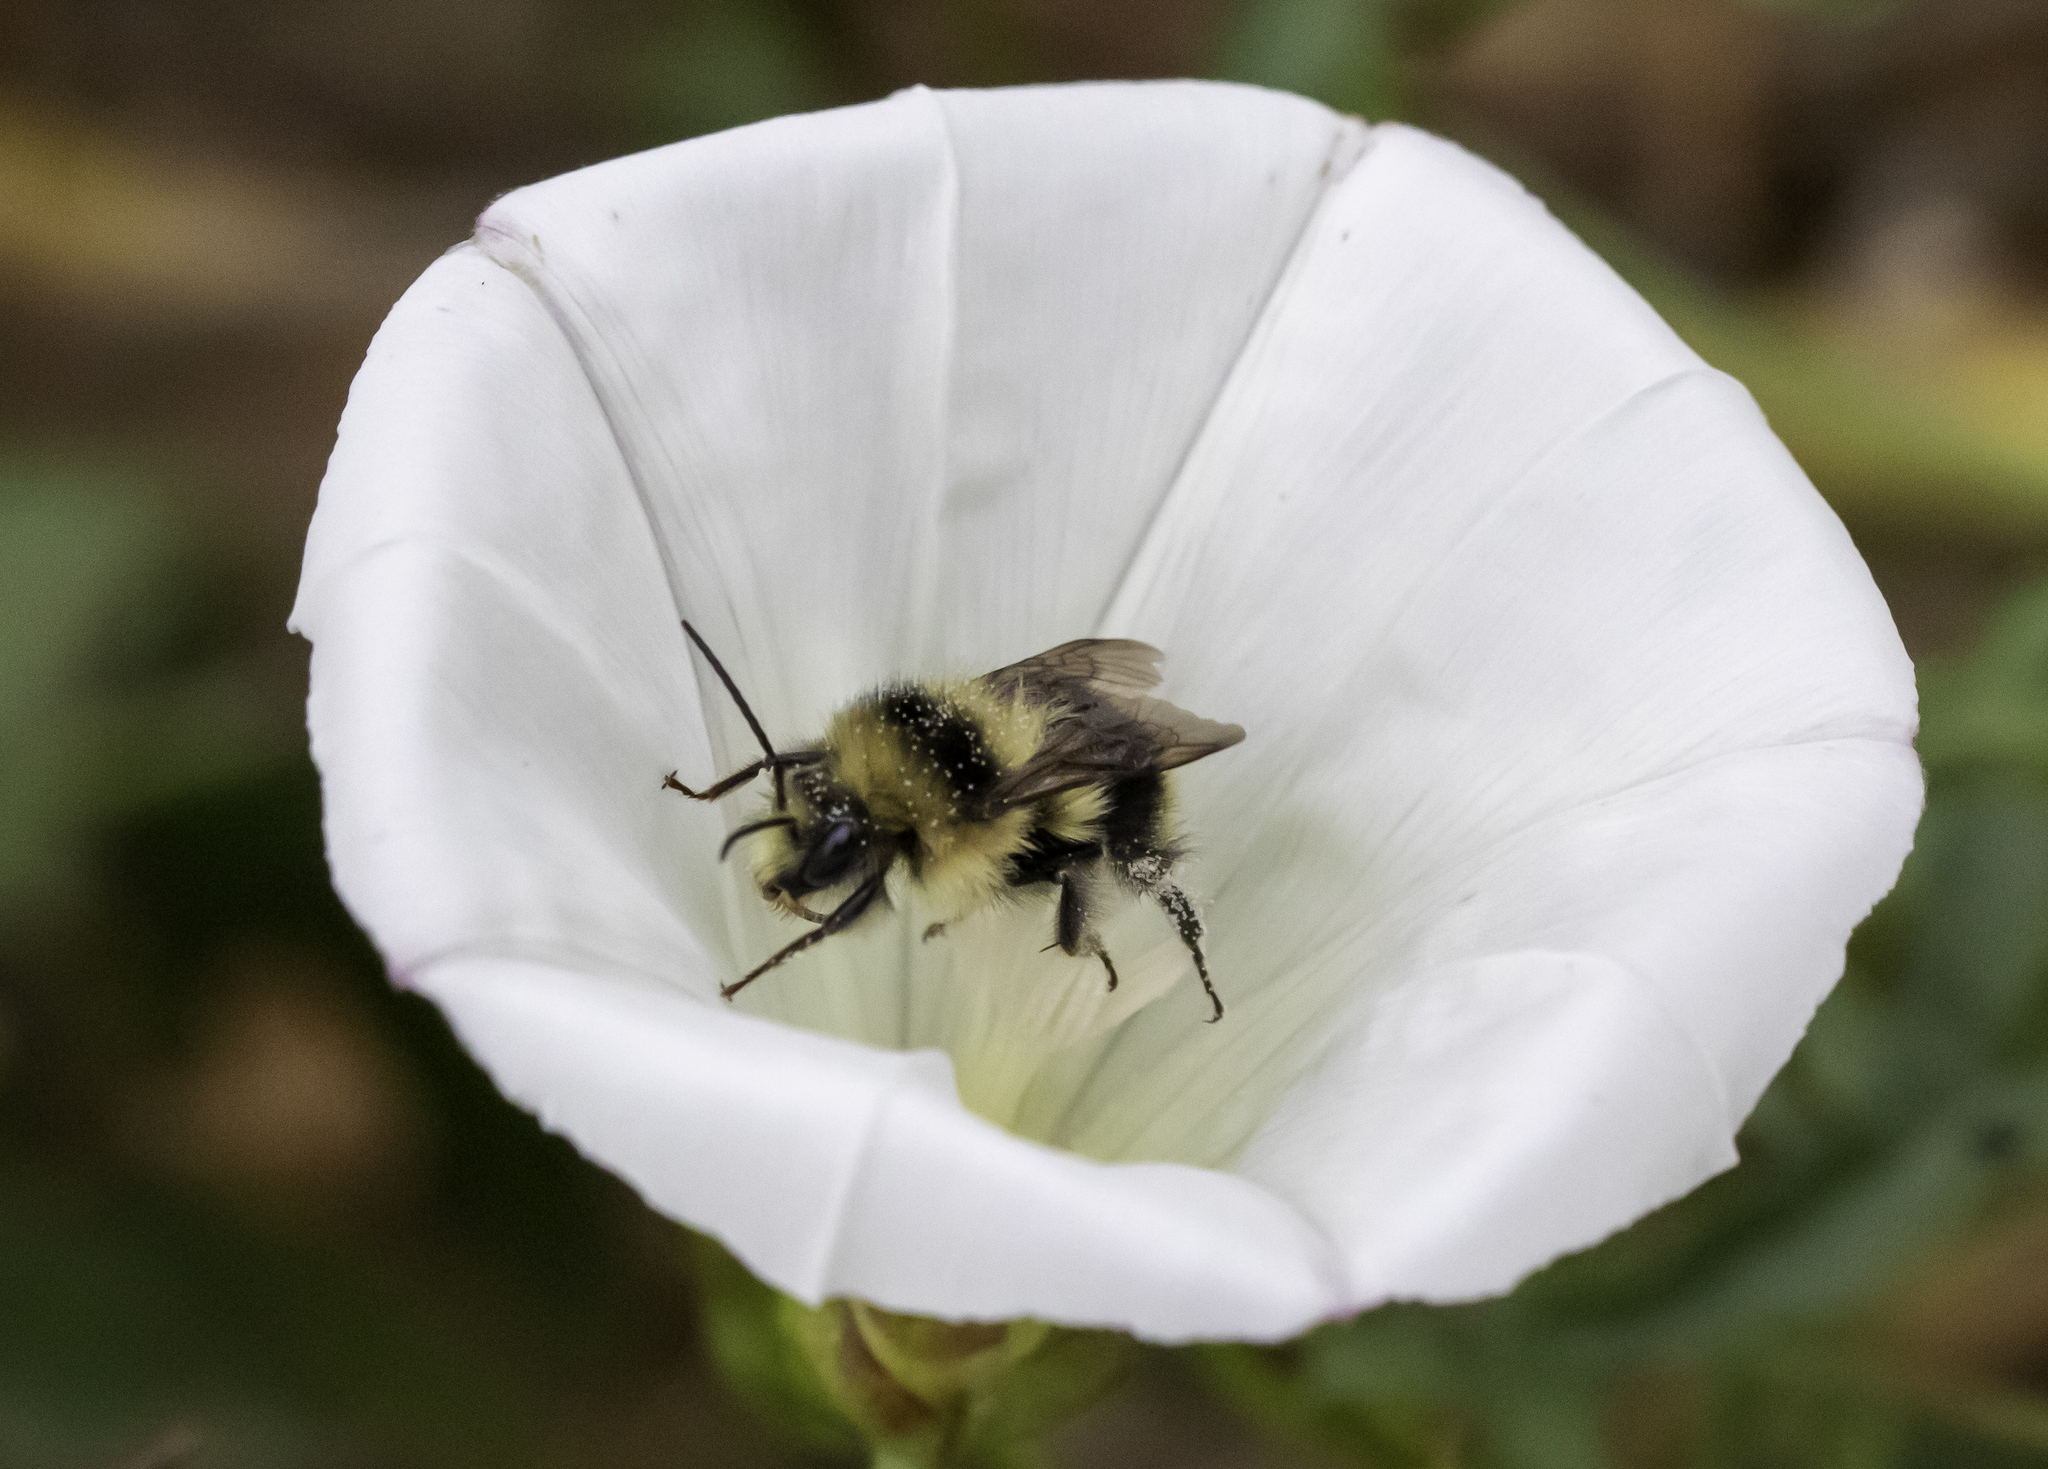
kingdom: Animalia
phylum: Arthropoda
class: Insecta
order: Hymenoptera
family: Apidae
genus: Bombus
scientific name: Bombus melanopygus
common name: Black tail bumble bee
